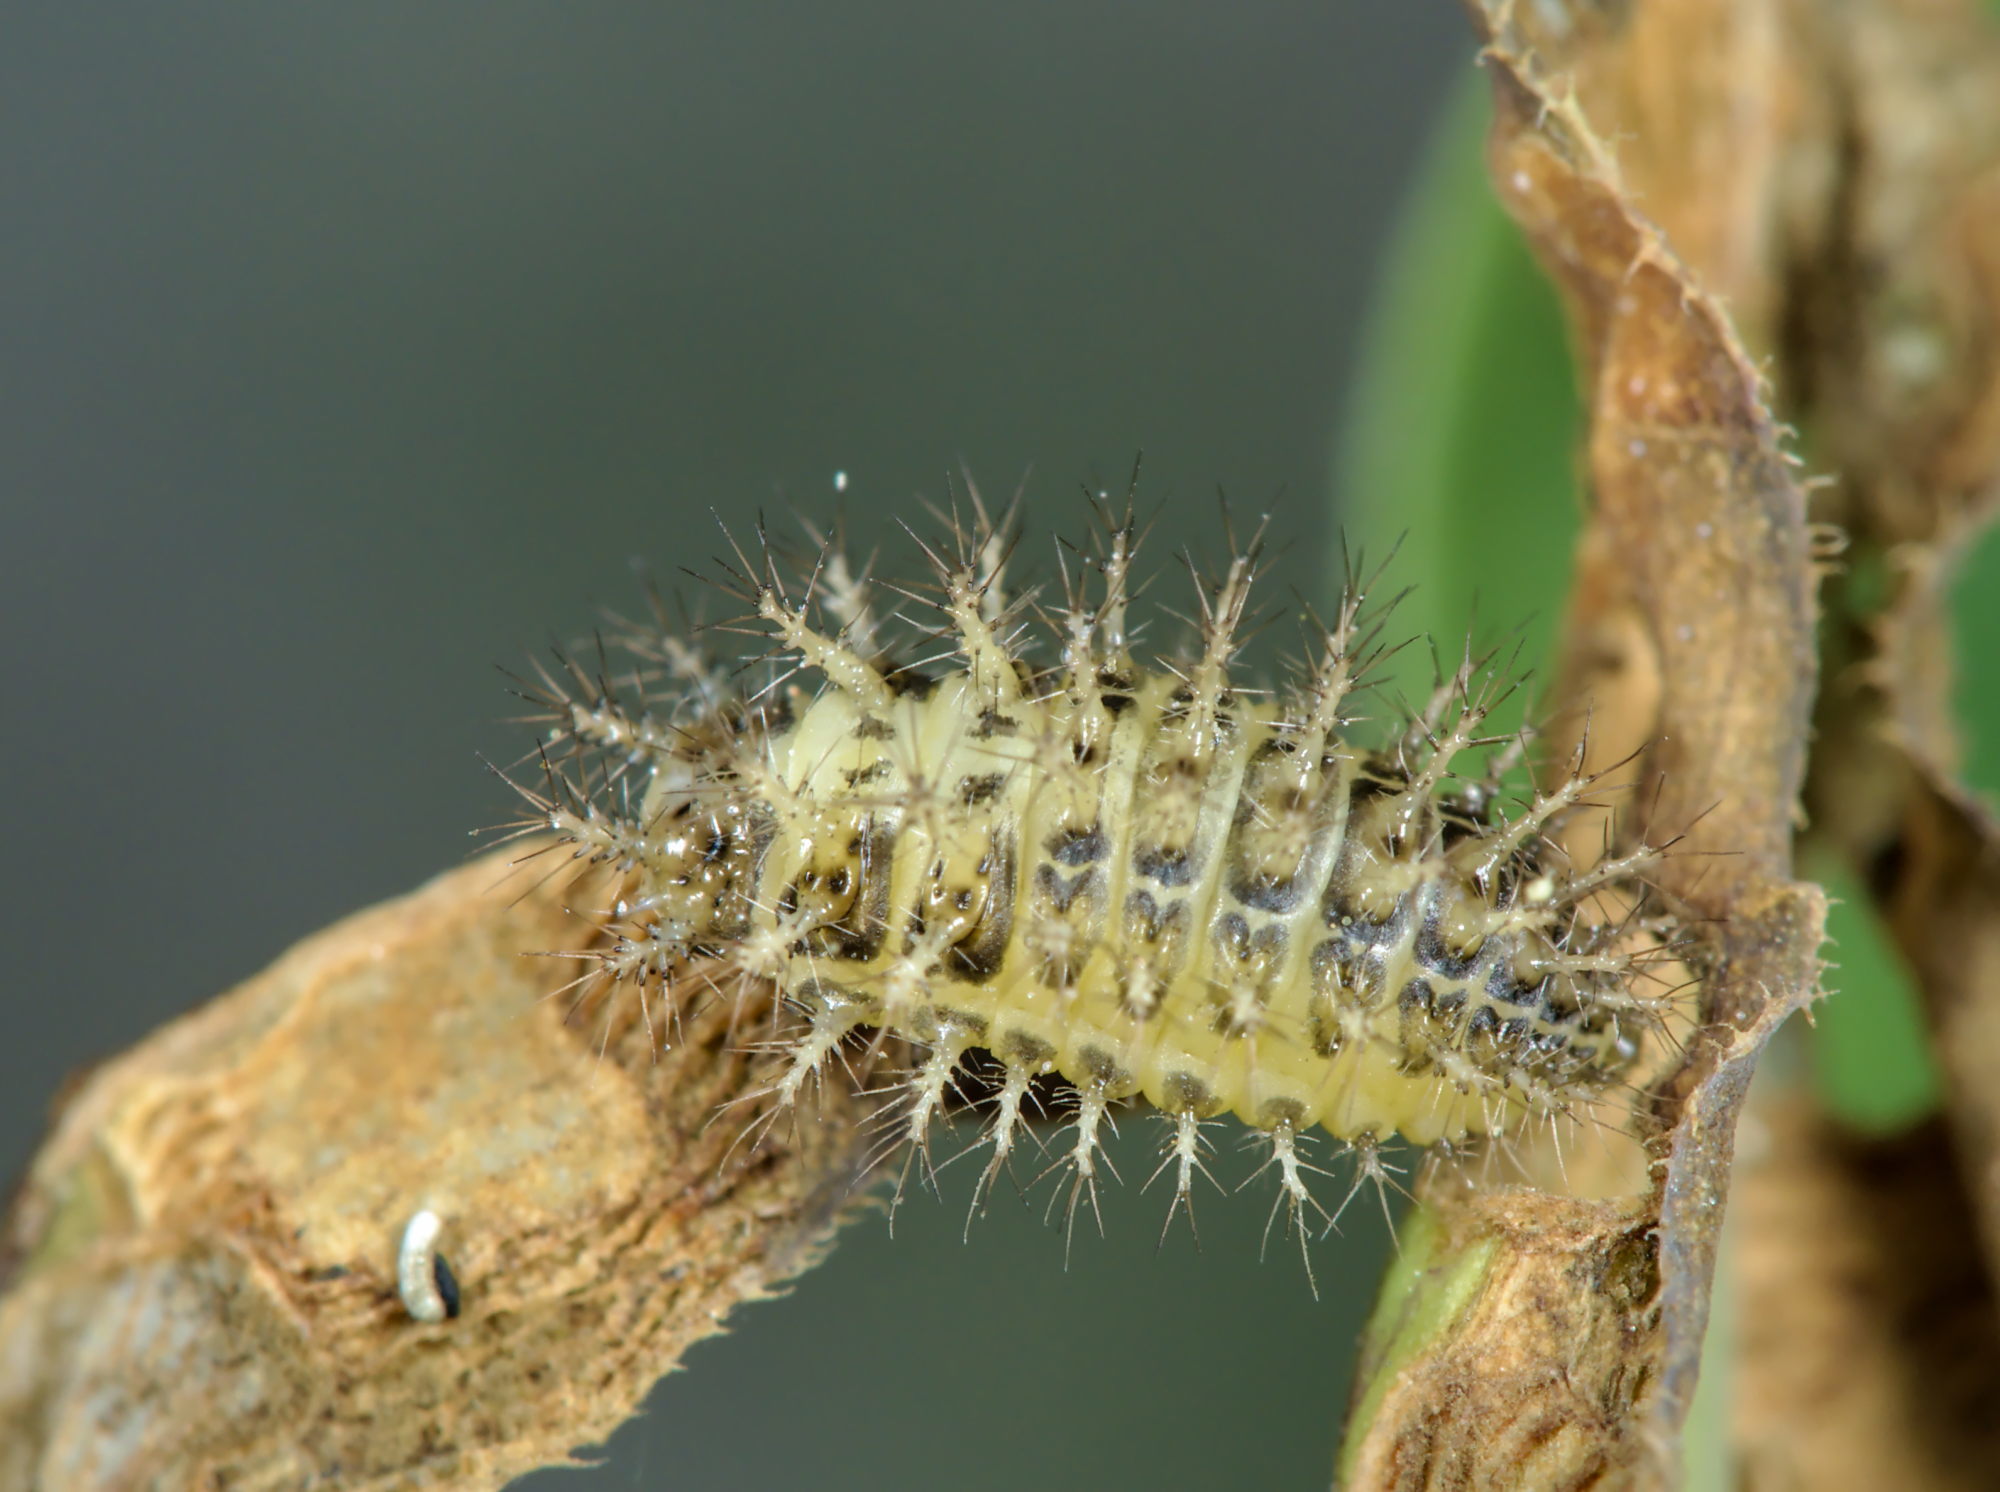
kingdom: Animalia
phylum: Arthropoda
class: Insecta
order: Coleoptera
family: Coccinellidae
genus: Subcoccinella
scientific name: Subcoccinella vigintiquatuorpunctata
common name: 24-spot ladybird
